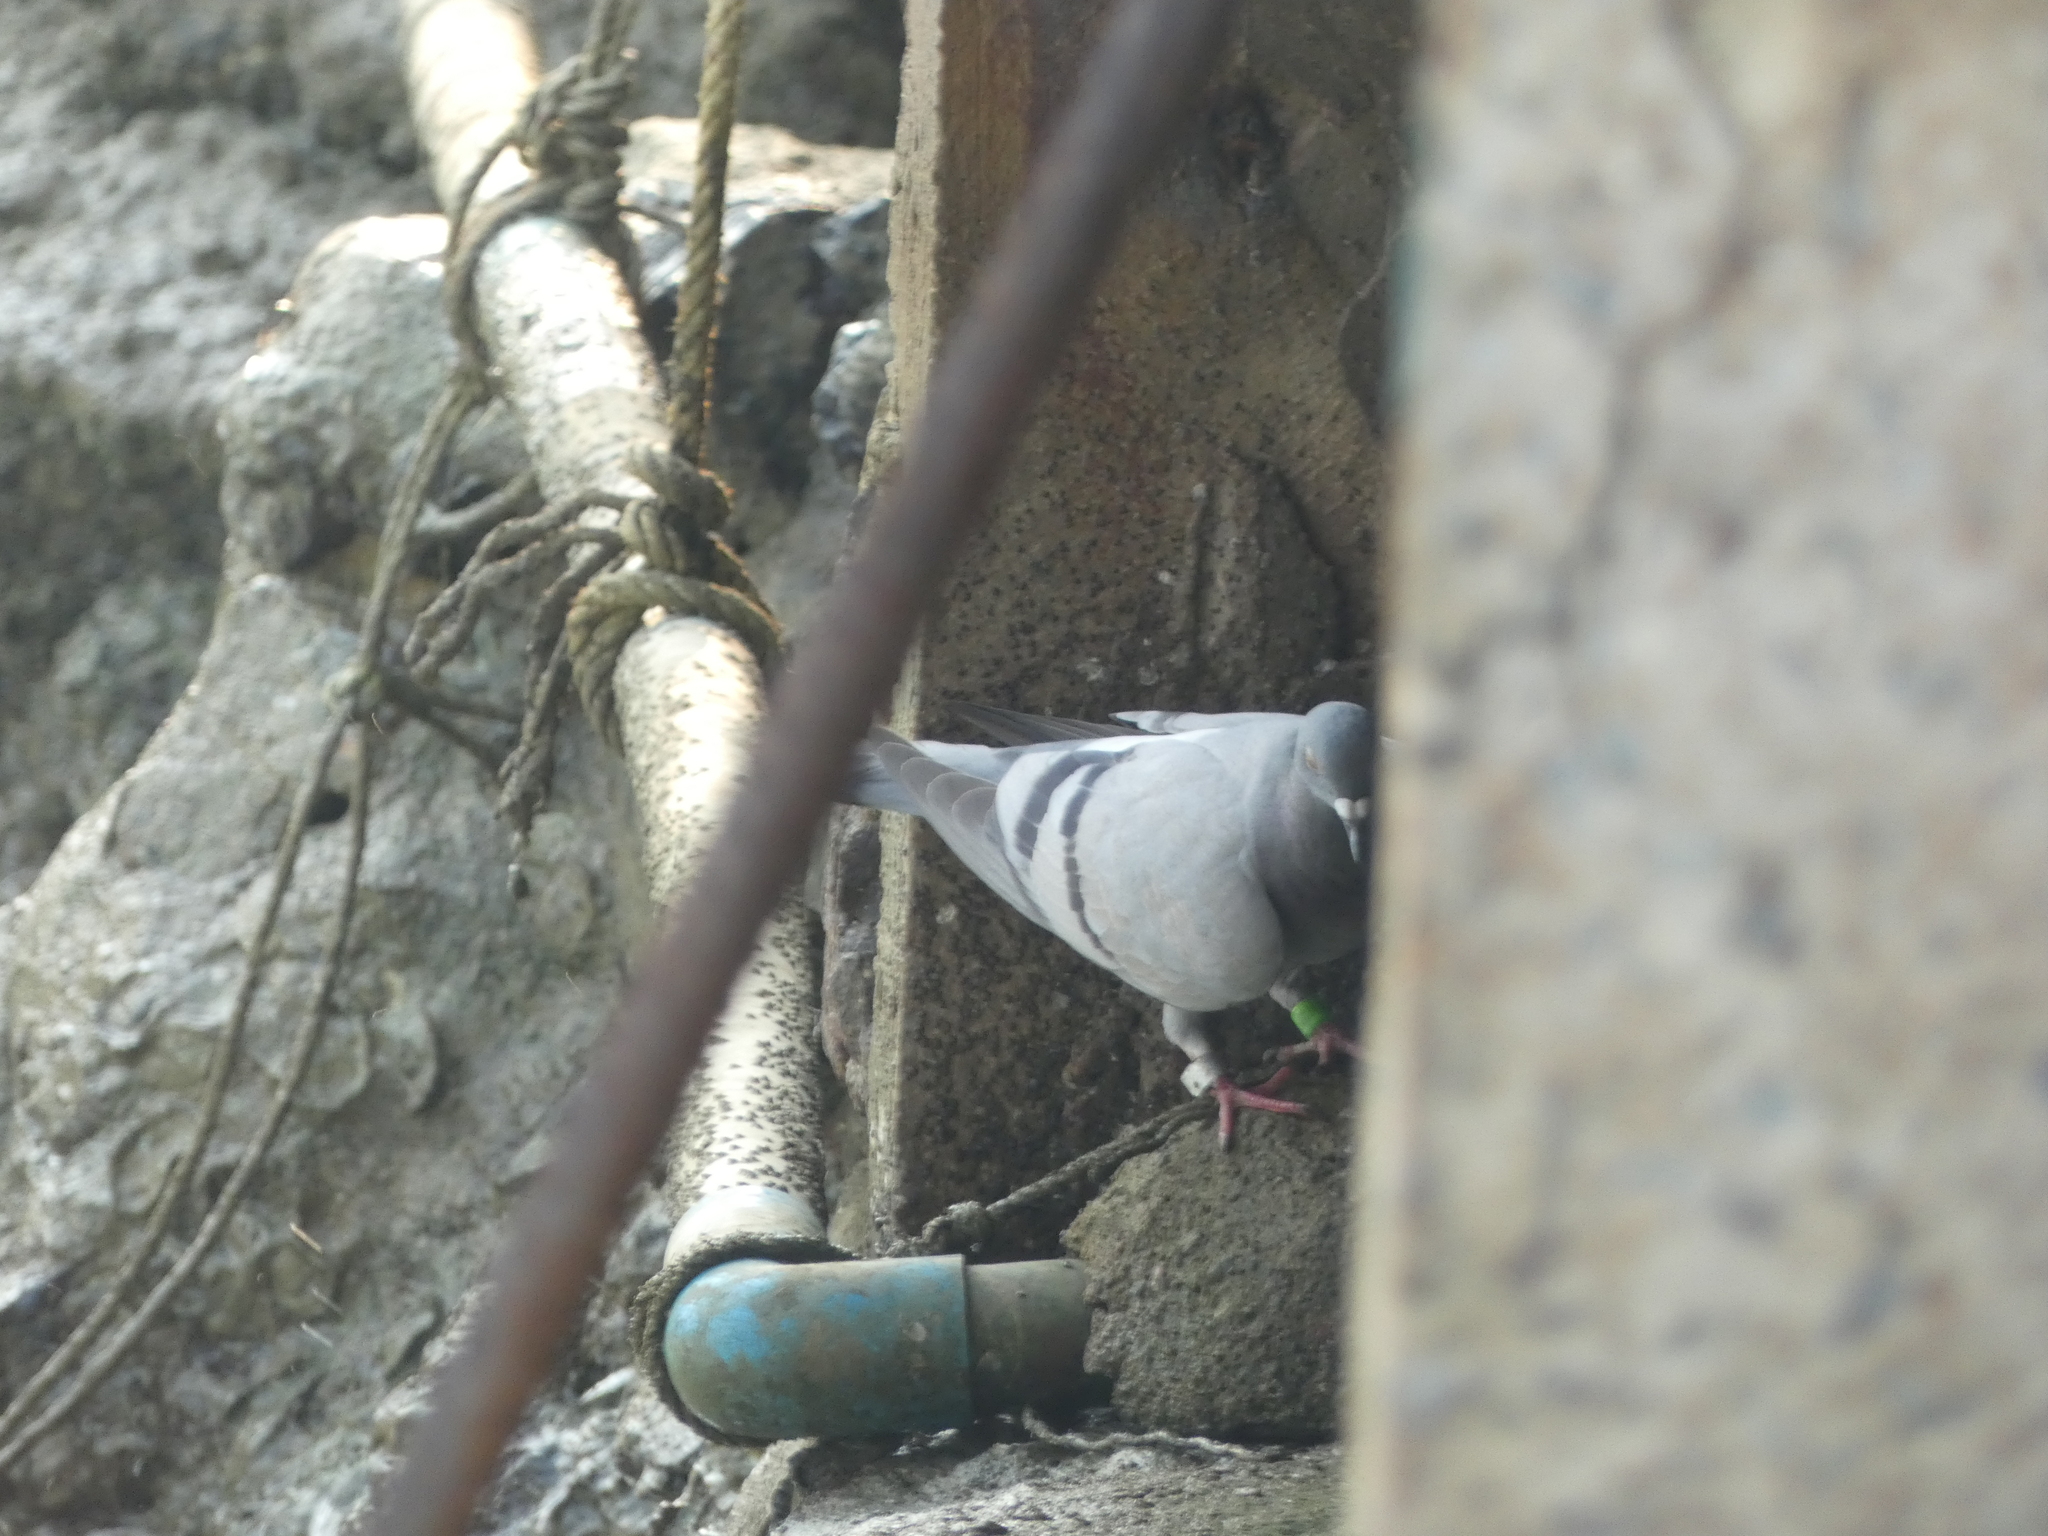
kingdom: Animalia
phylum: Chordata
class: Aves
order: Columbiformes
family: Columbidae
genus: Columba
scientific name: Columba livia
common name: Rock pigeon
